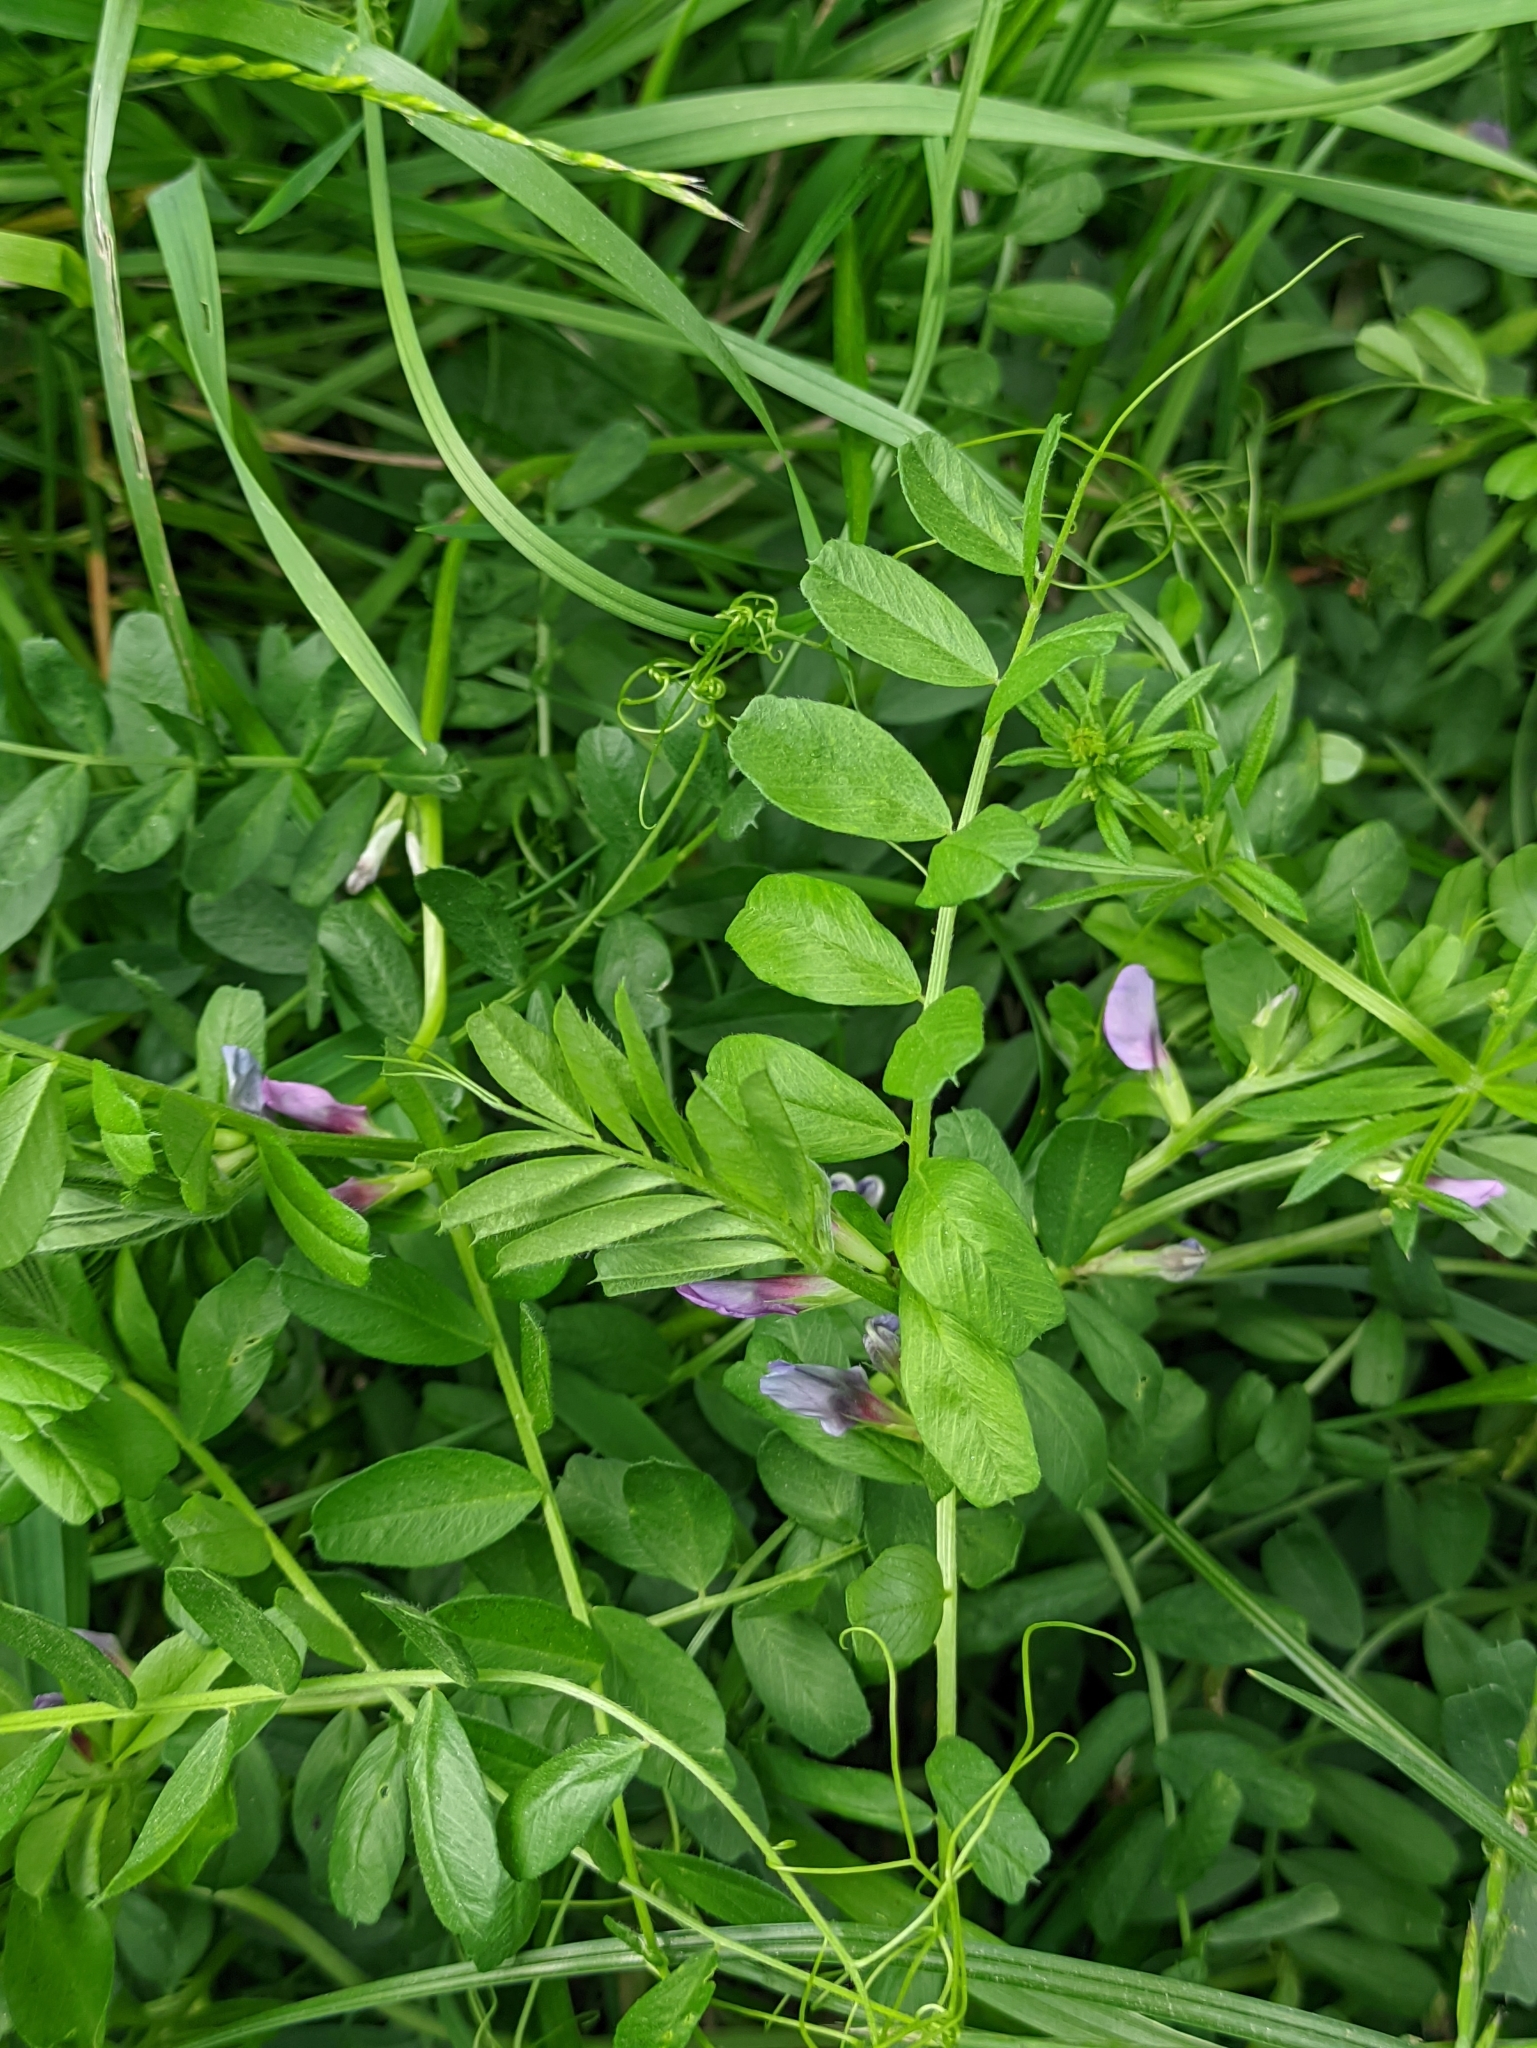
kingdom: Plantae
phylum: Tracheophyta
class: Magnoliopsida
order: Fabales
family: Fabaceae
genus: Vicia
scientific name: Vicia sativa
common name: Garden vetch
